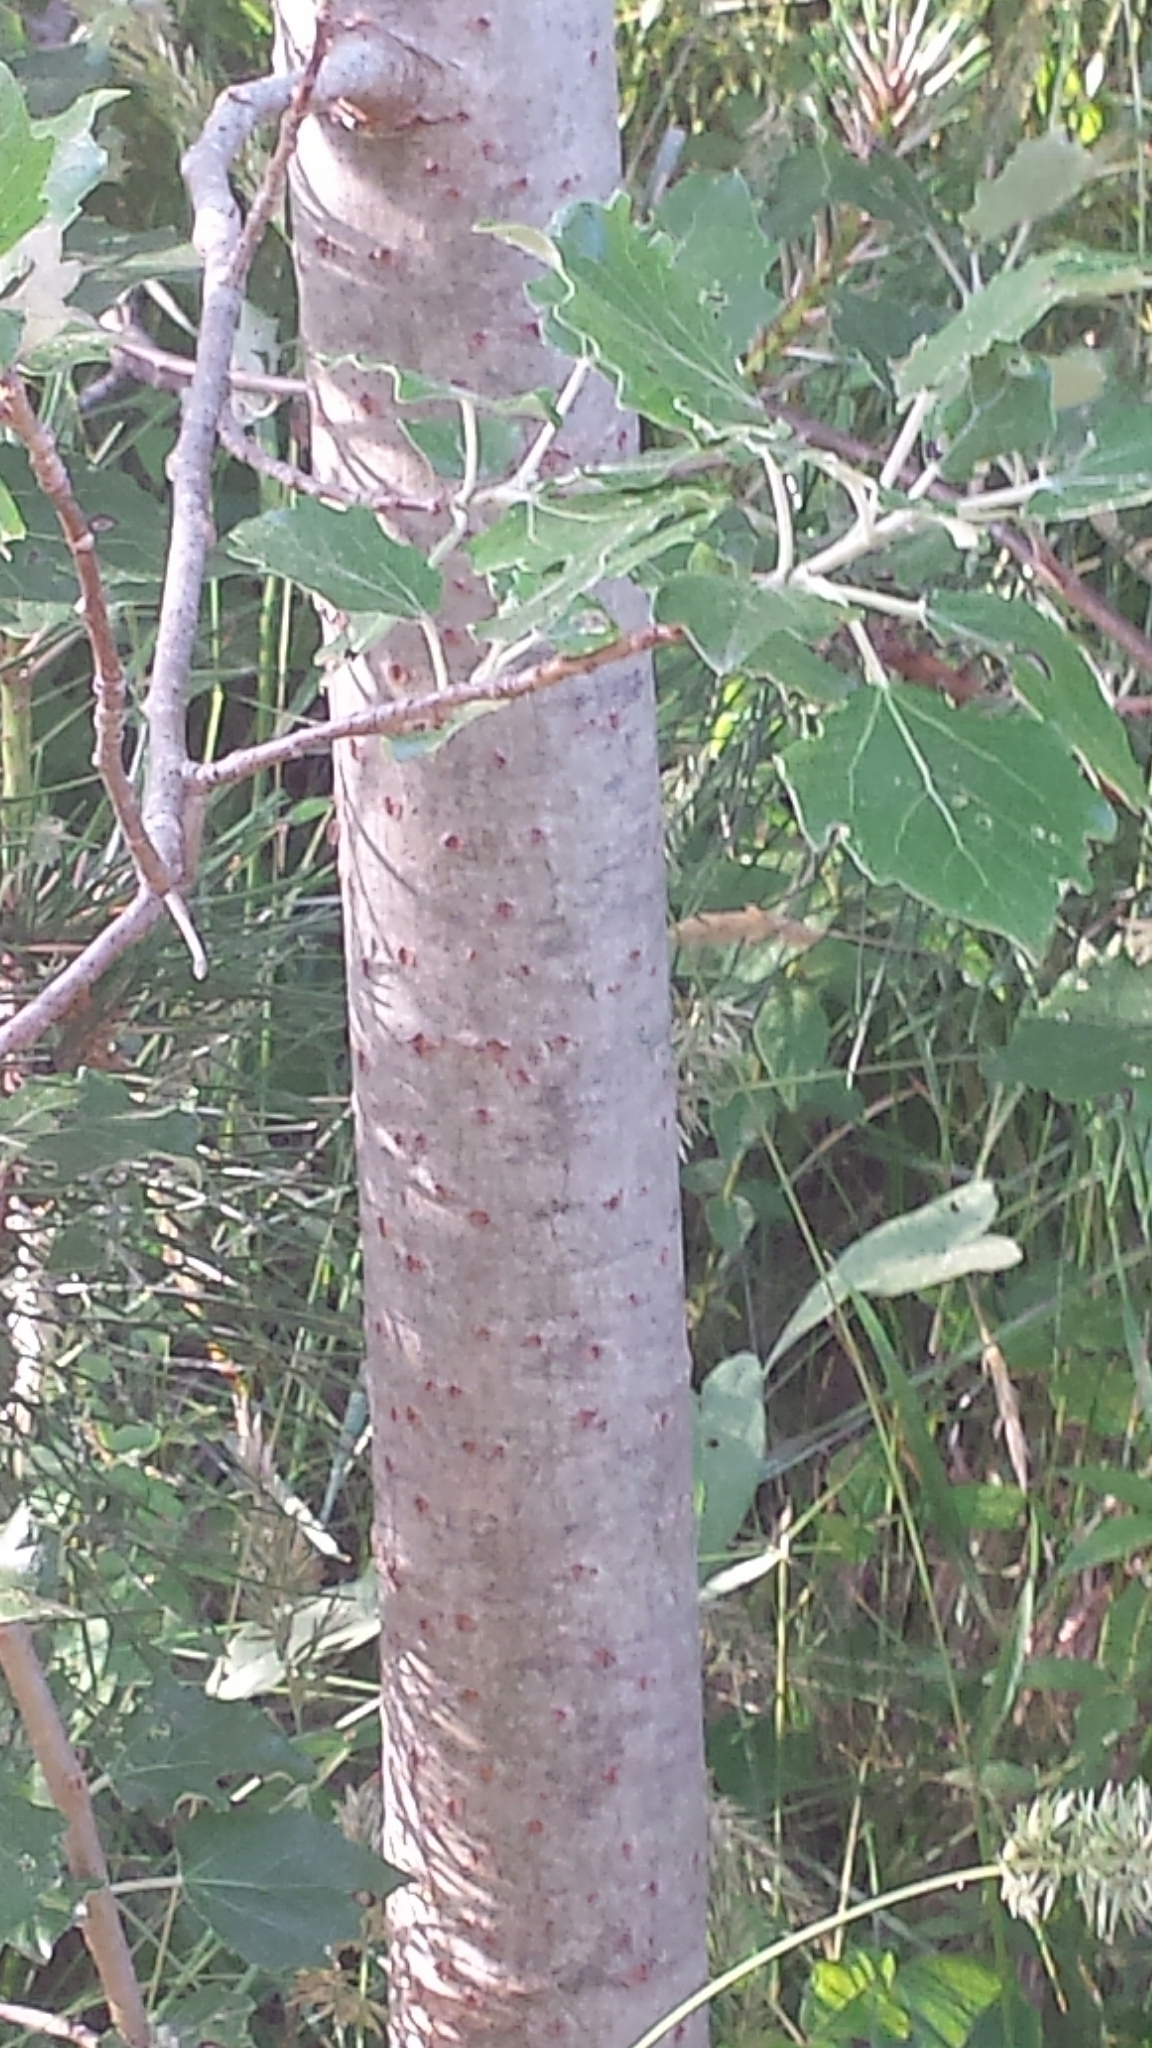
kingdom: Plantae
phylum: Tracheophyta
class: Magnoliopsida
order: Malpighiales
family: Salicaceae
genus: Populus
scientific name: Populus alba
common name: White poplar
